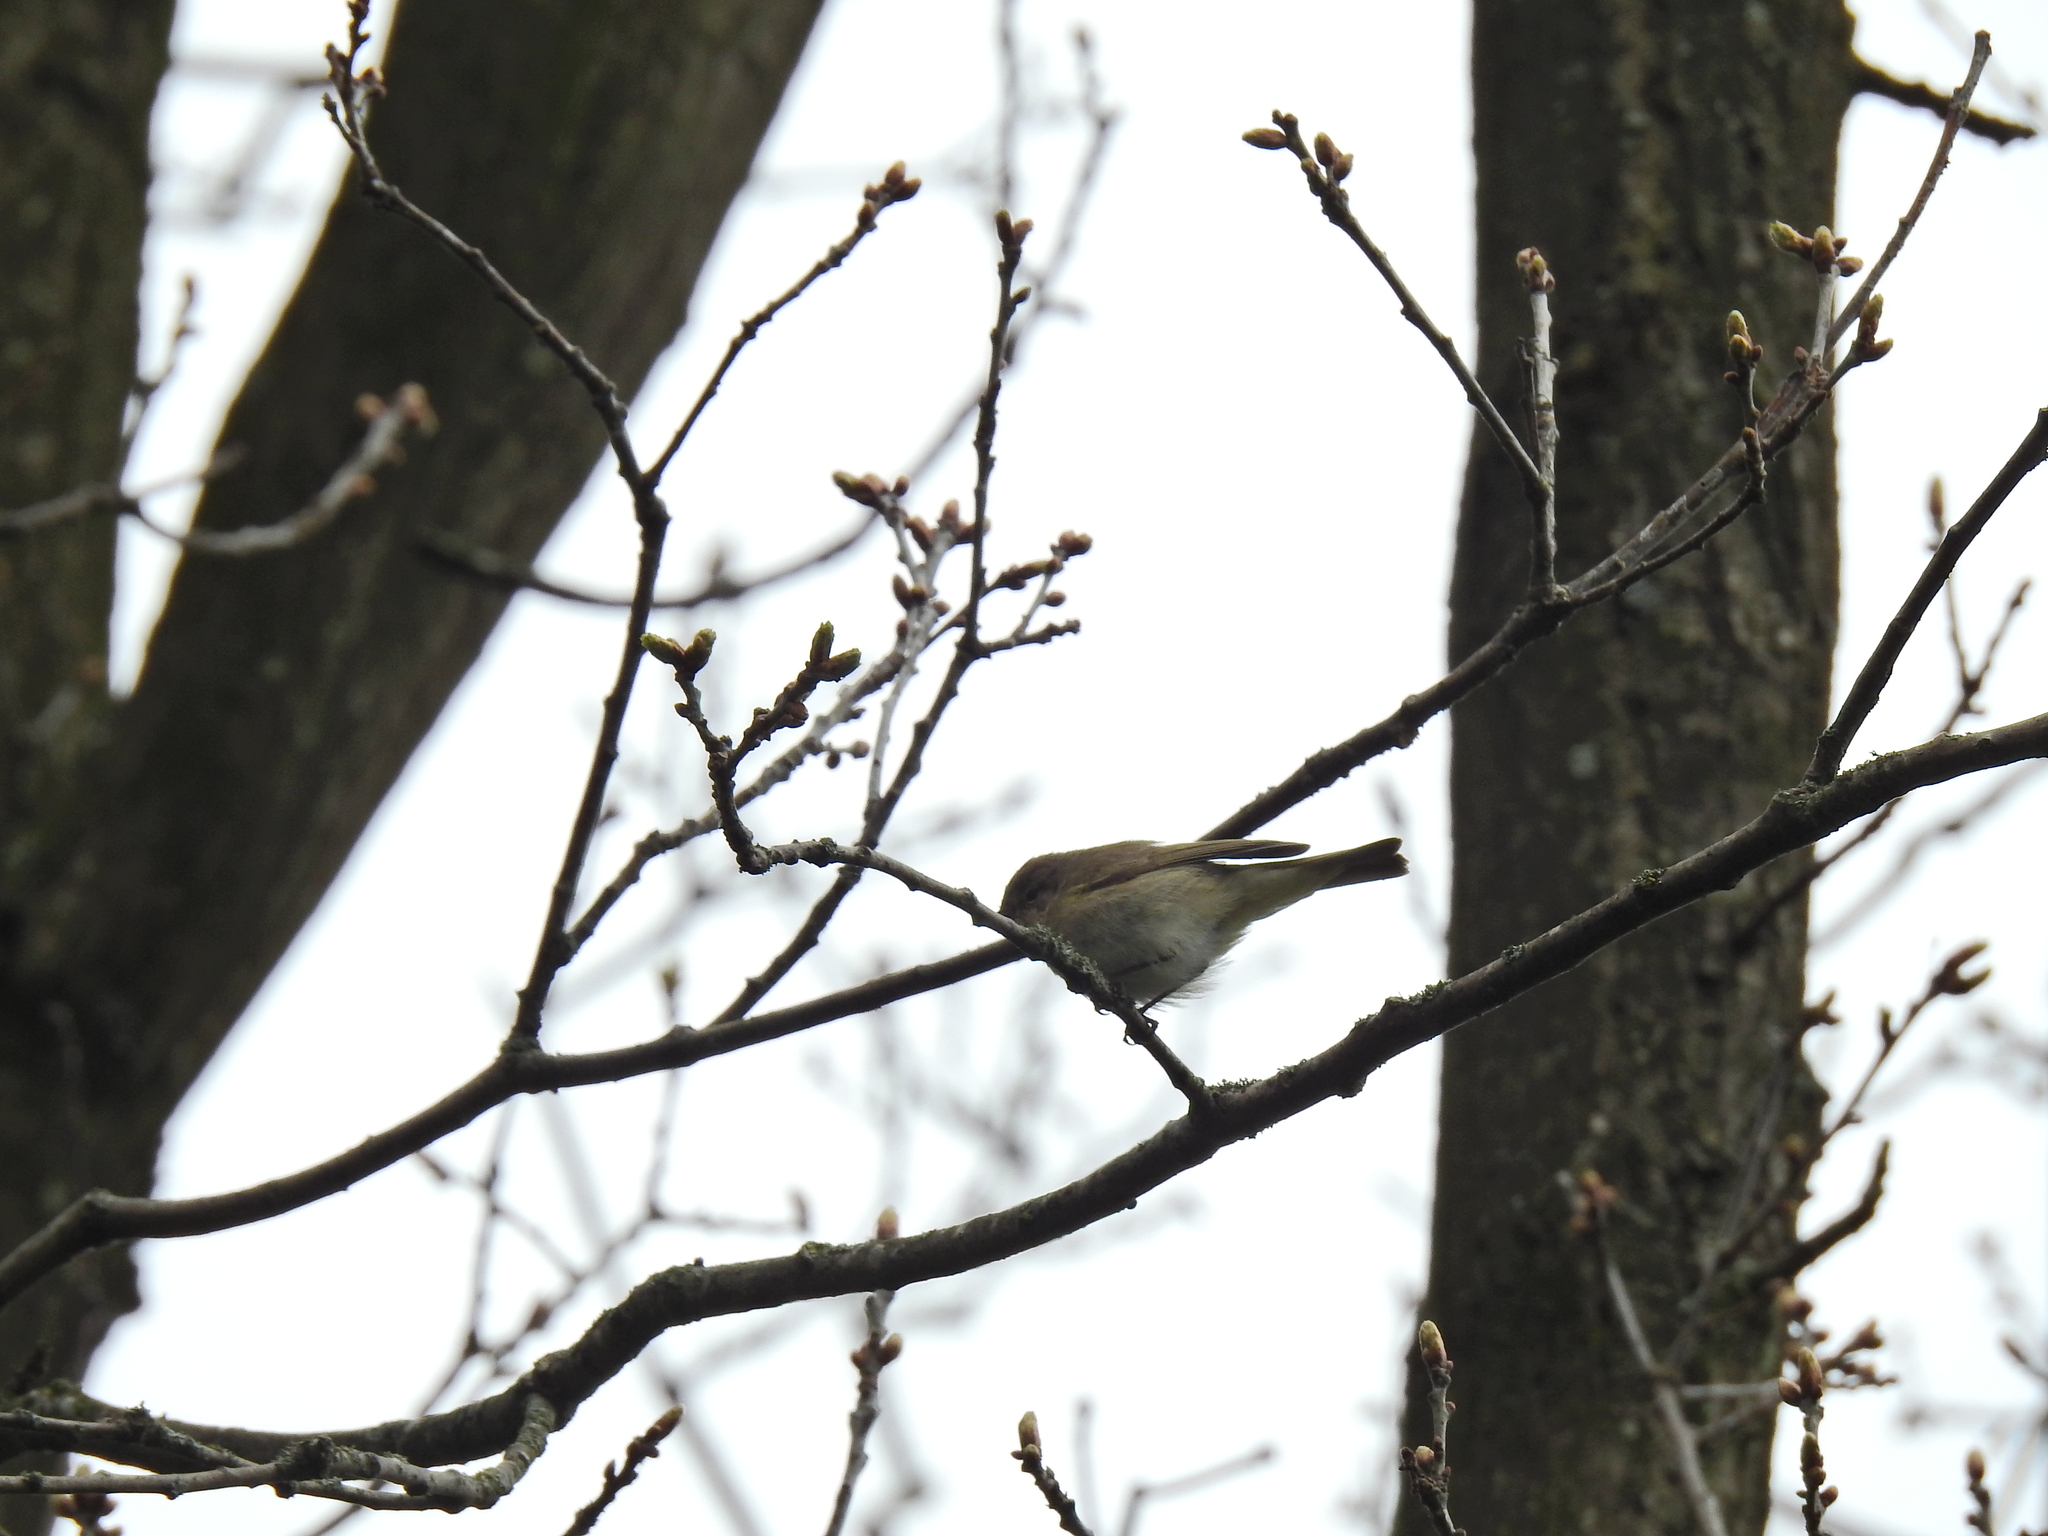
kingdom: Animalia
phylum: Chordata
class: Aves
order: Passeriformes
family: Phylloscopidae
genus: Phylloscopus
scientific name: Phylloscopus collybita
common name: Common chiffchaff
